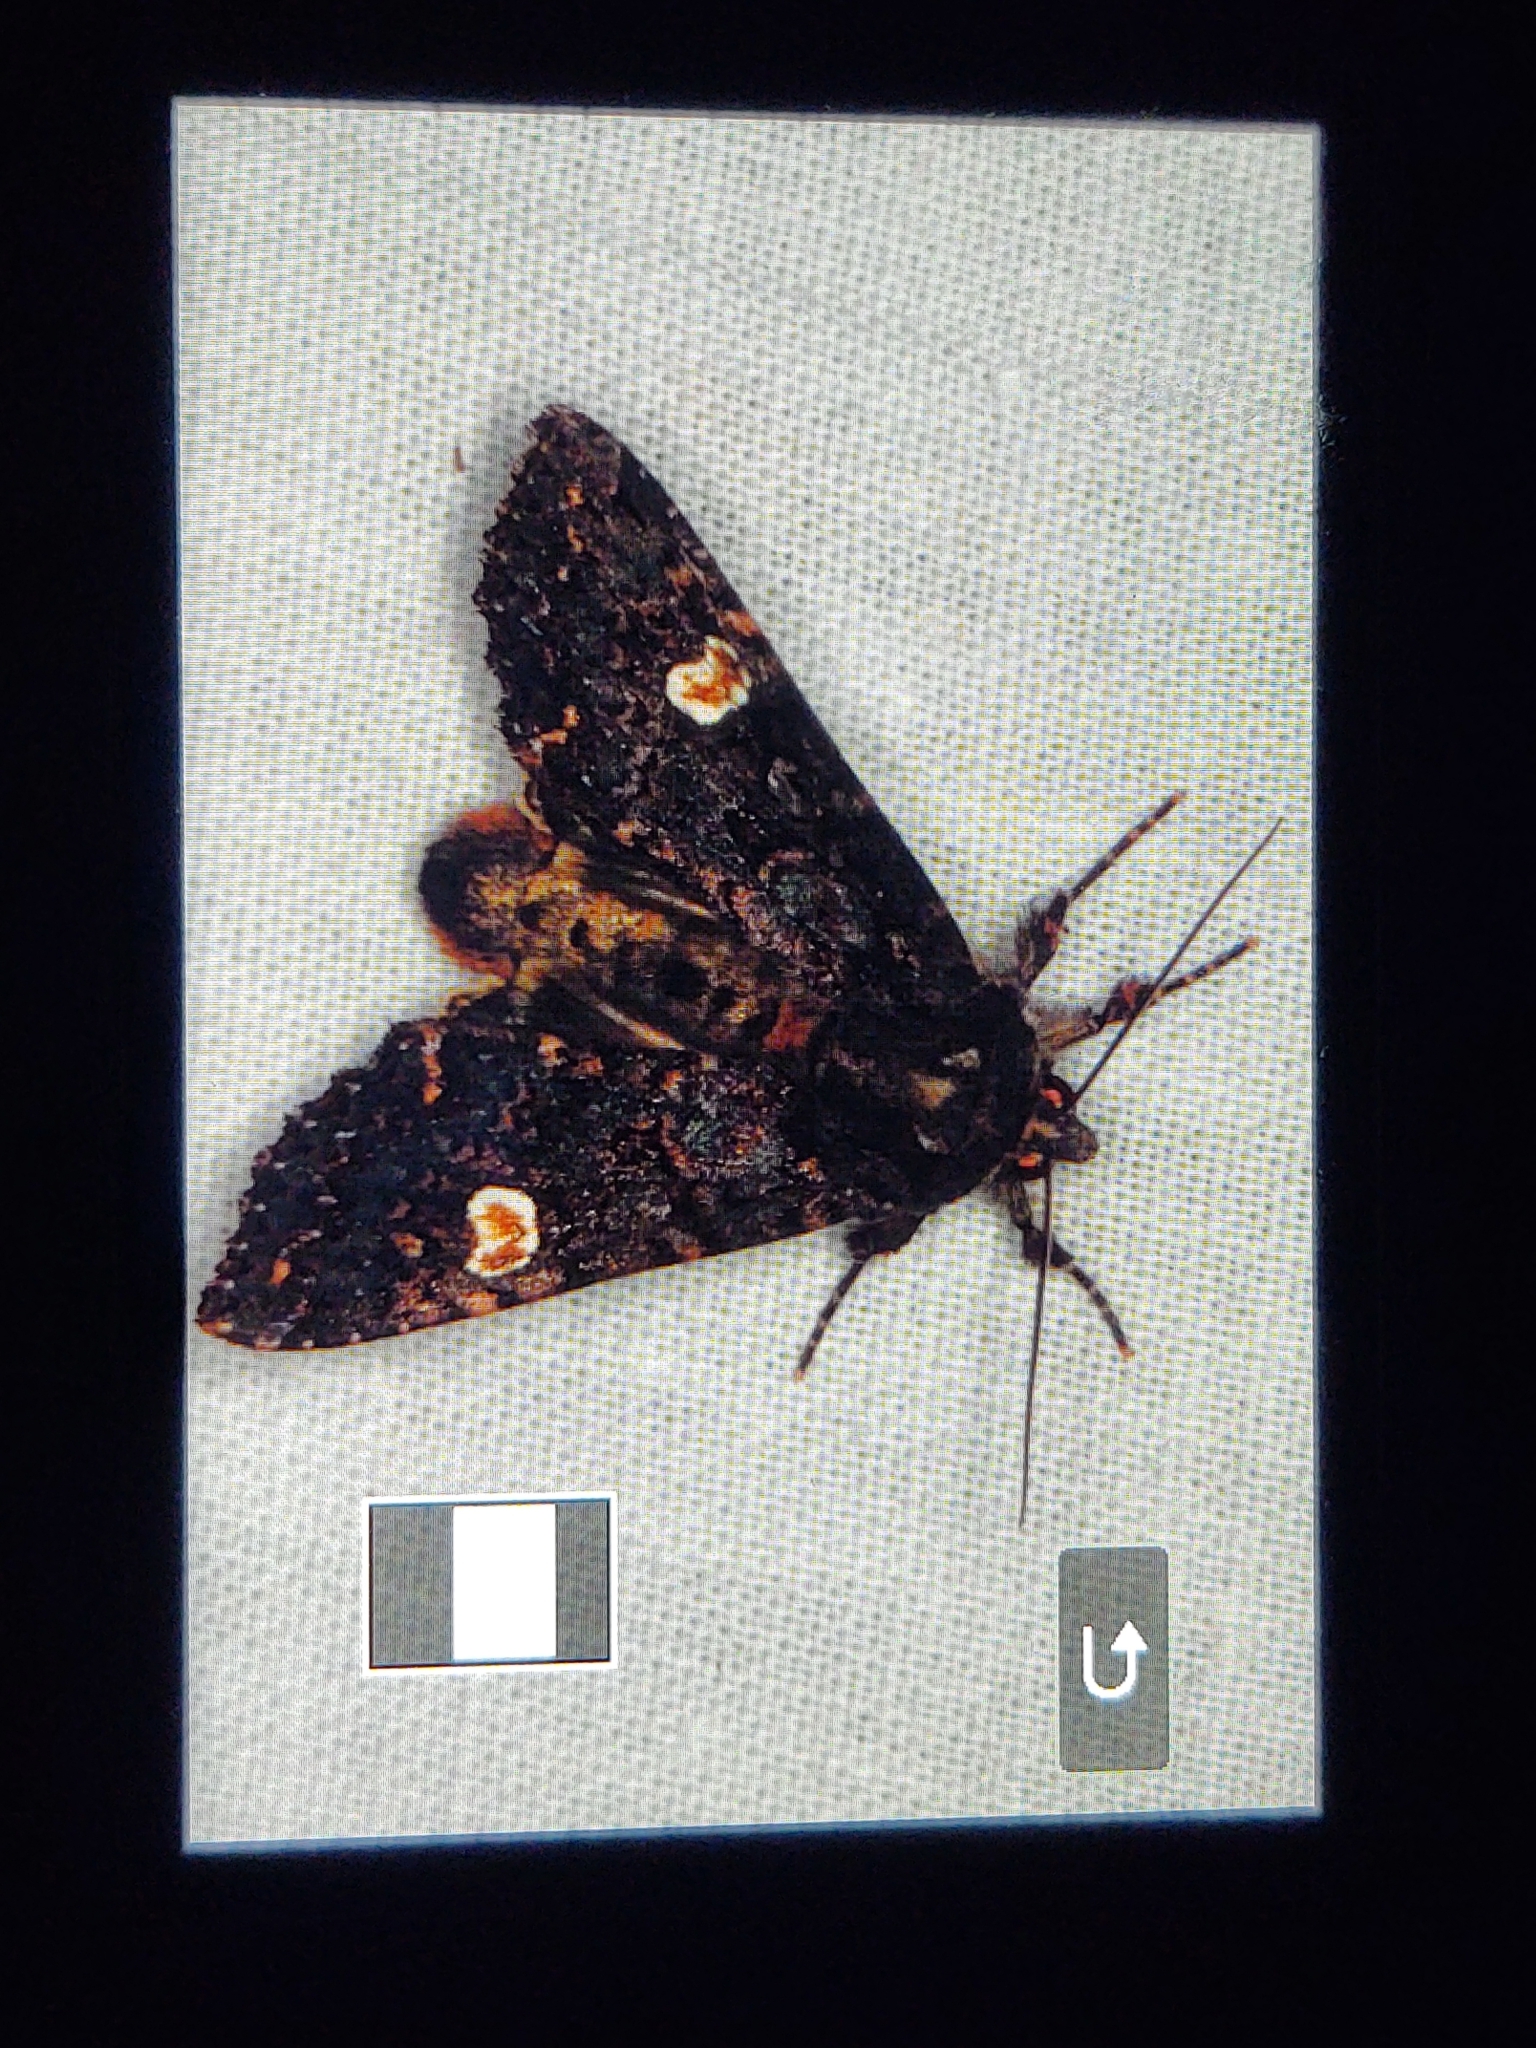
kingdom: Animalia
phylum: Arthropoda
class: Insecta
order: Lepidoptera
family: Noctuidae
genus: Melanchra
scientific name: Melanchra persicariae
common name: Dot moth
